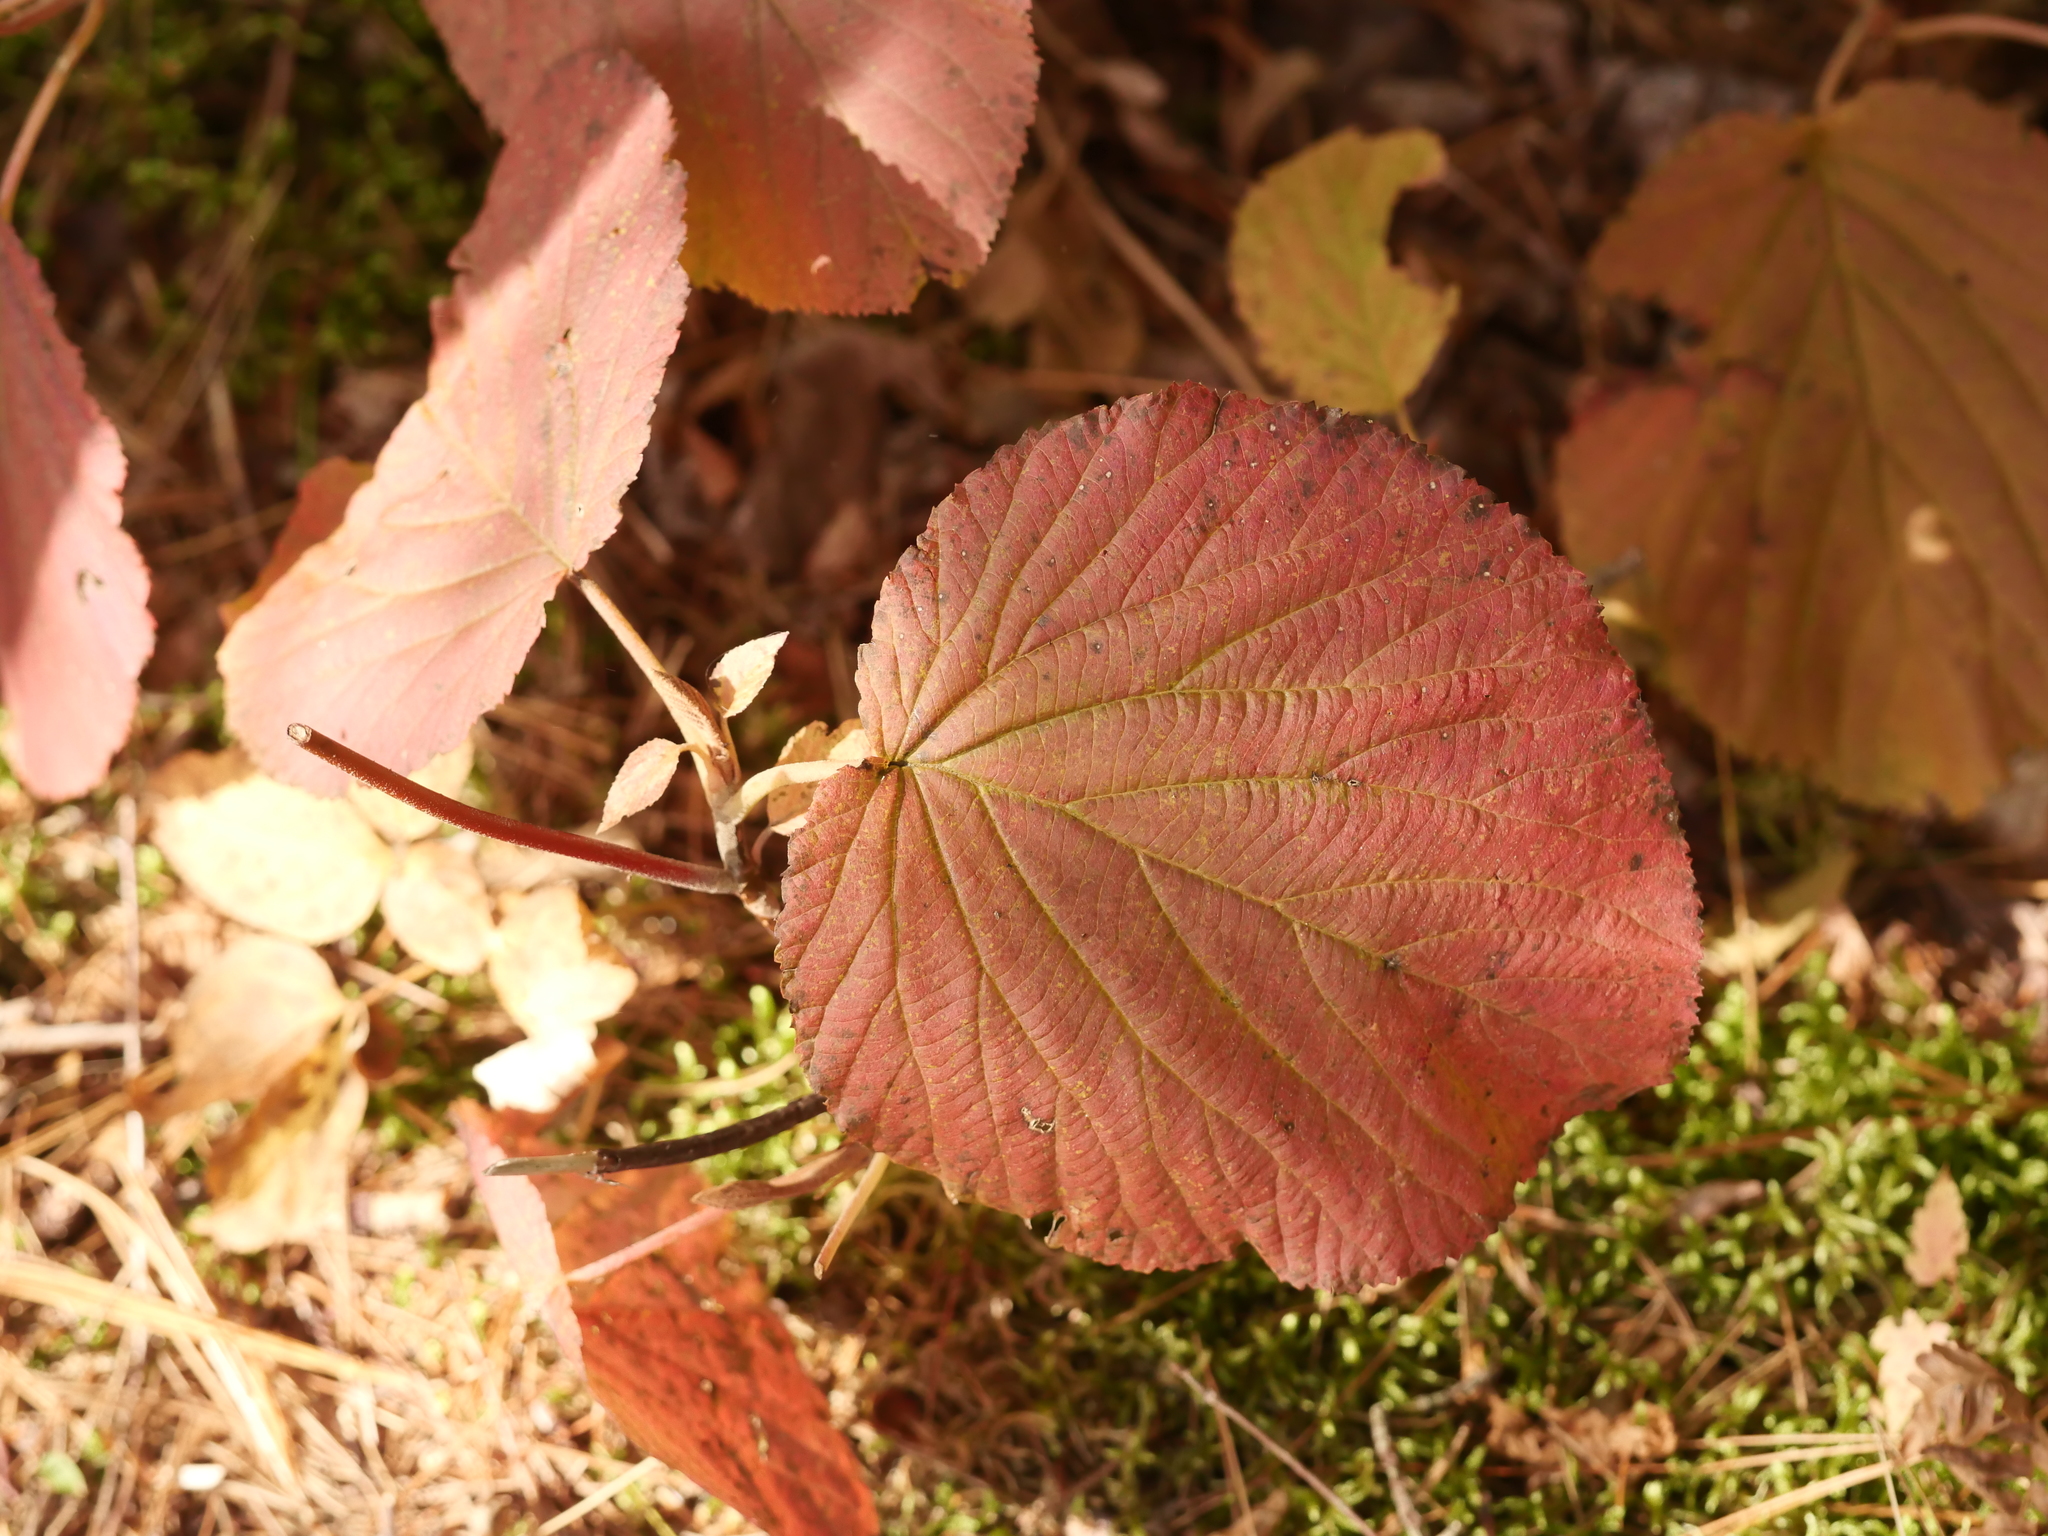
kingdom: Plantae
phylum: Tracheophyta
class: Magnoliopsida
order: Dipsacales
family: Viburnaceae
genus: Viburnum
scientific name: Viburnum lantanoides
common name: Hobblebush
